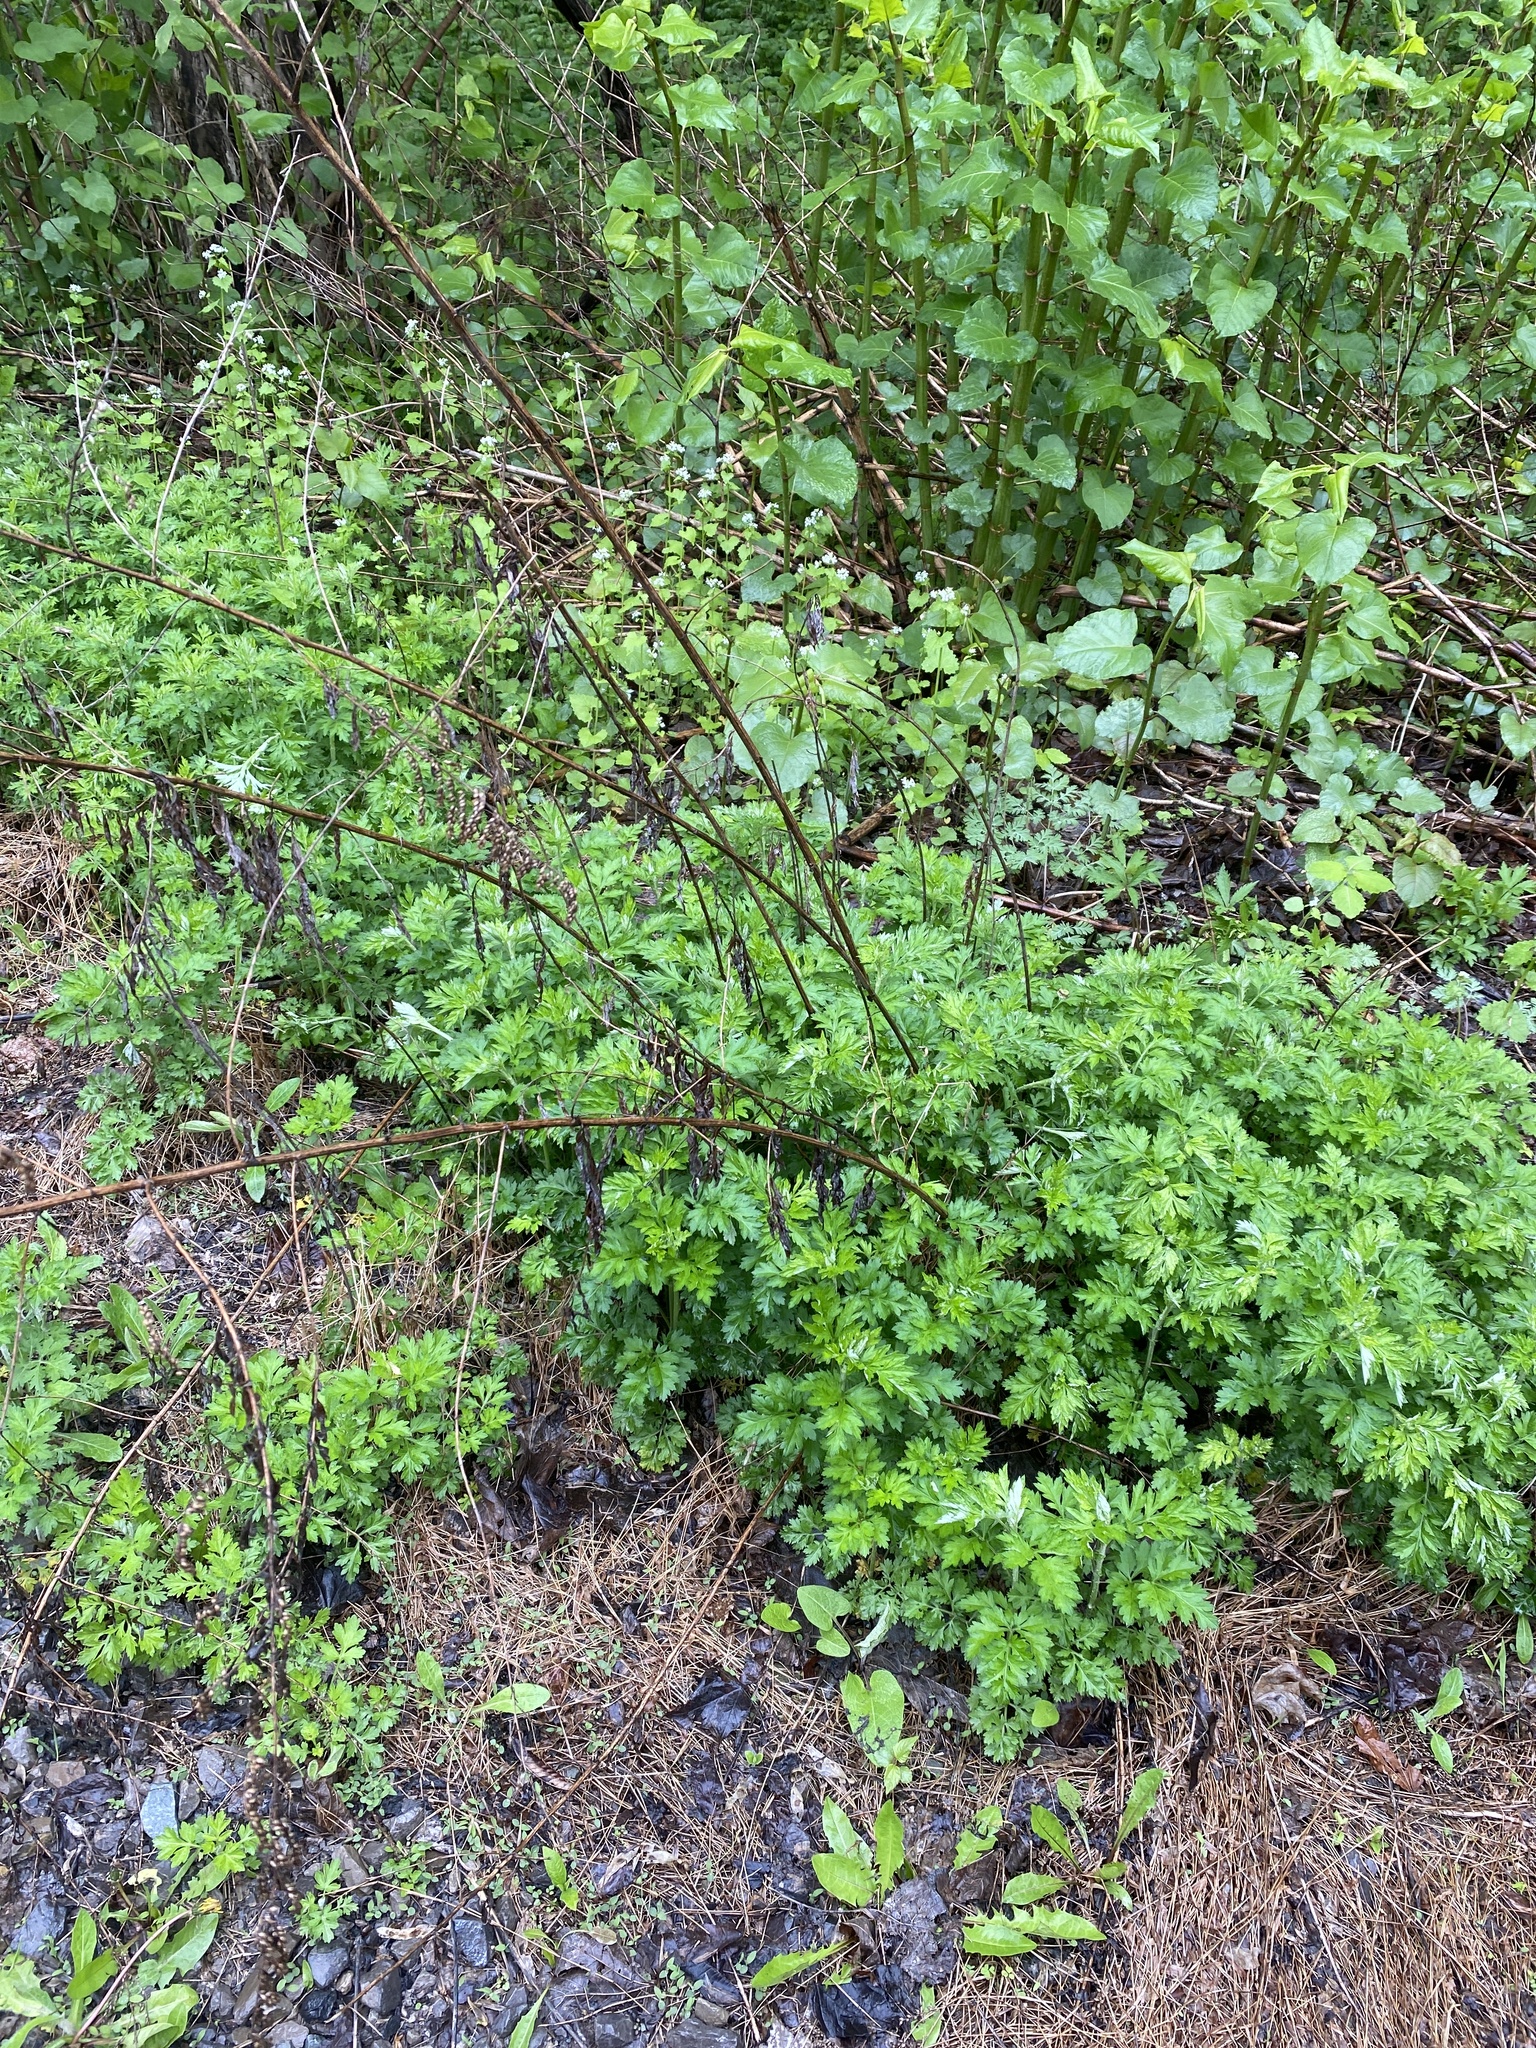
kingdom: Plantae
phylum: Tracheophyta
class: Magnoliopsida
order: Asterales
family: Asteraceae
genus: Artemisia
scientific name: Artemisia vulgaris
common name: Mugwort
